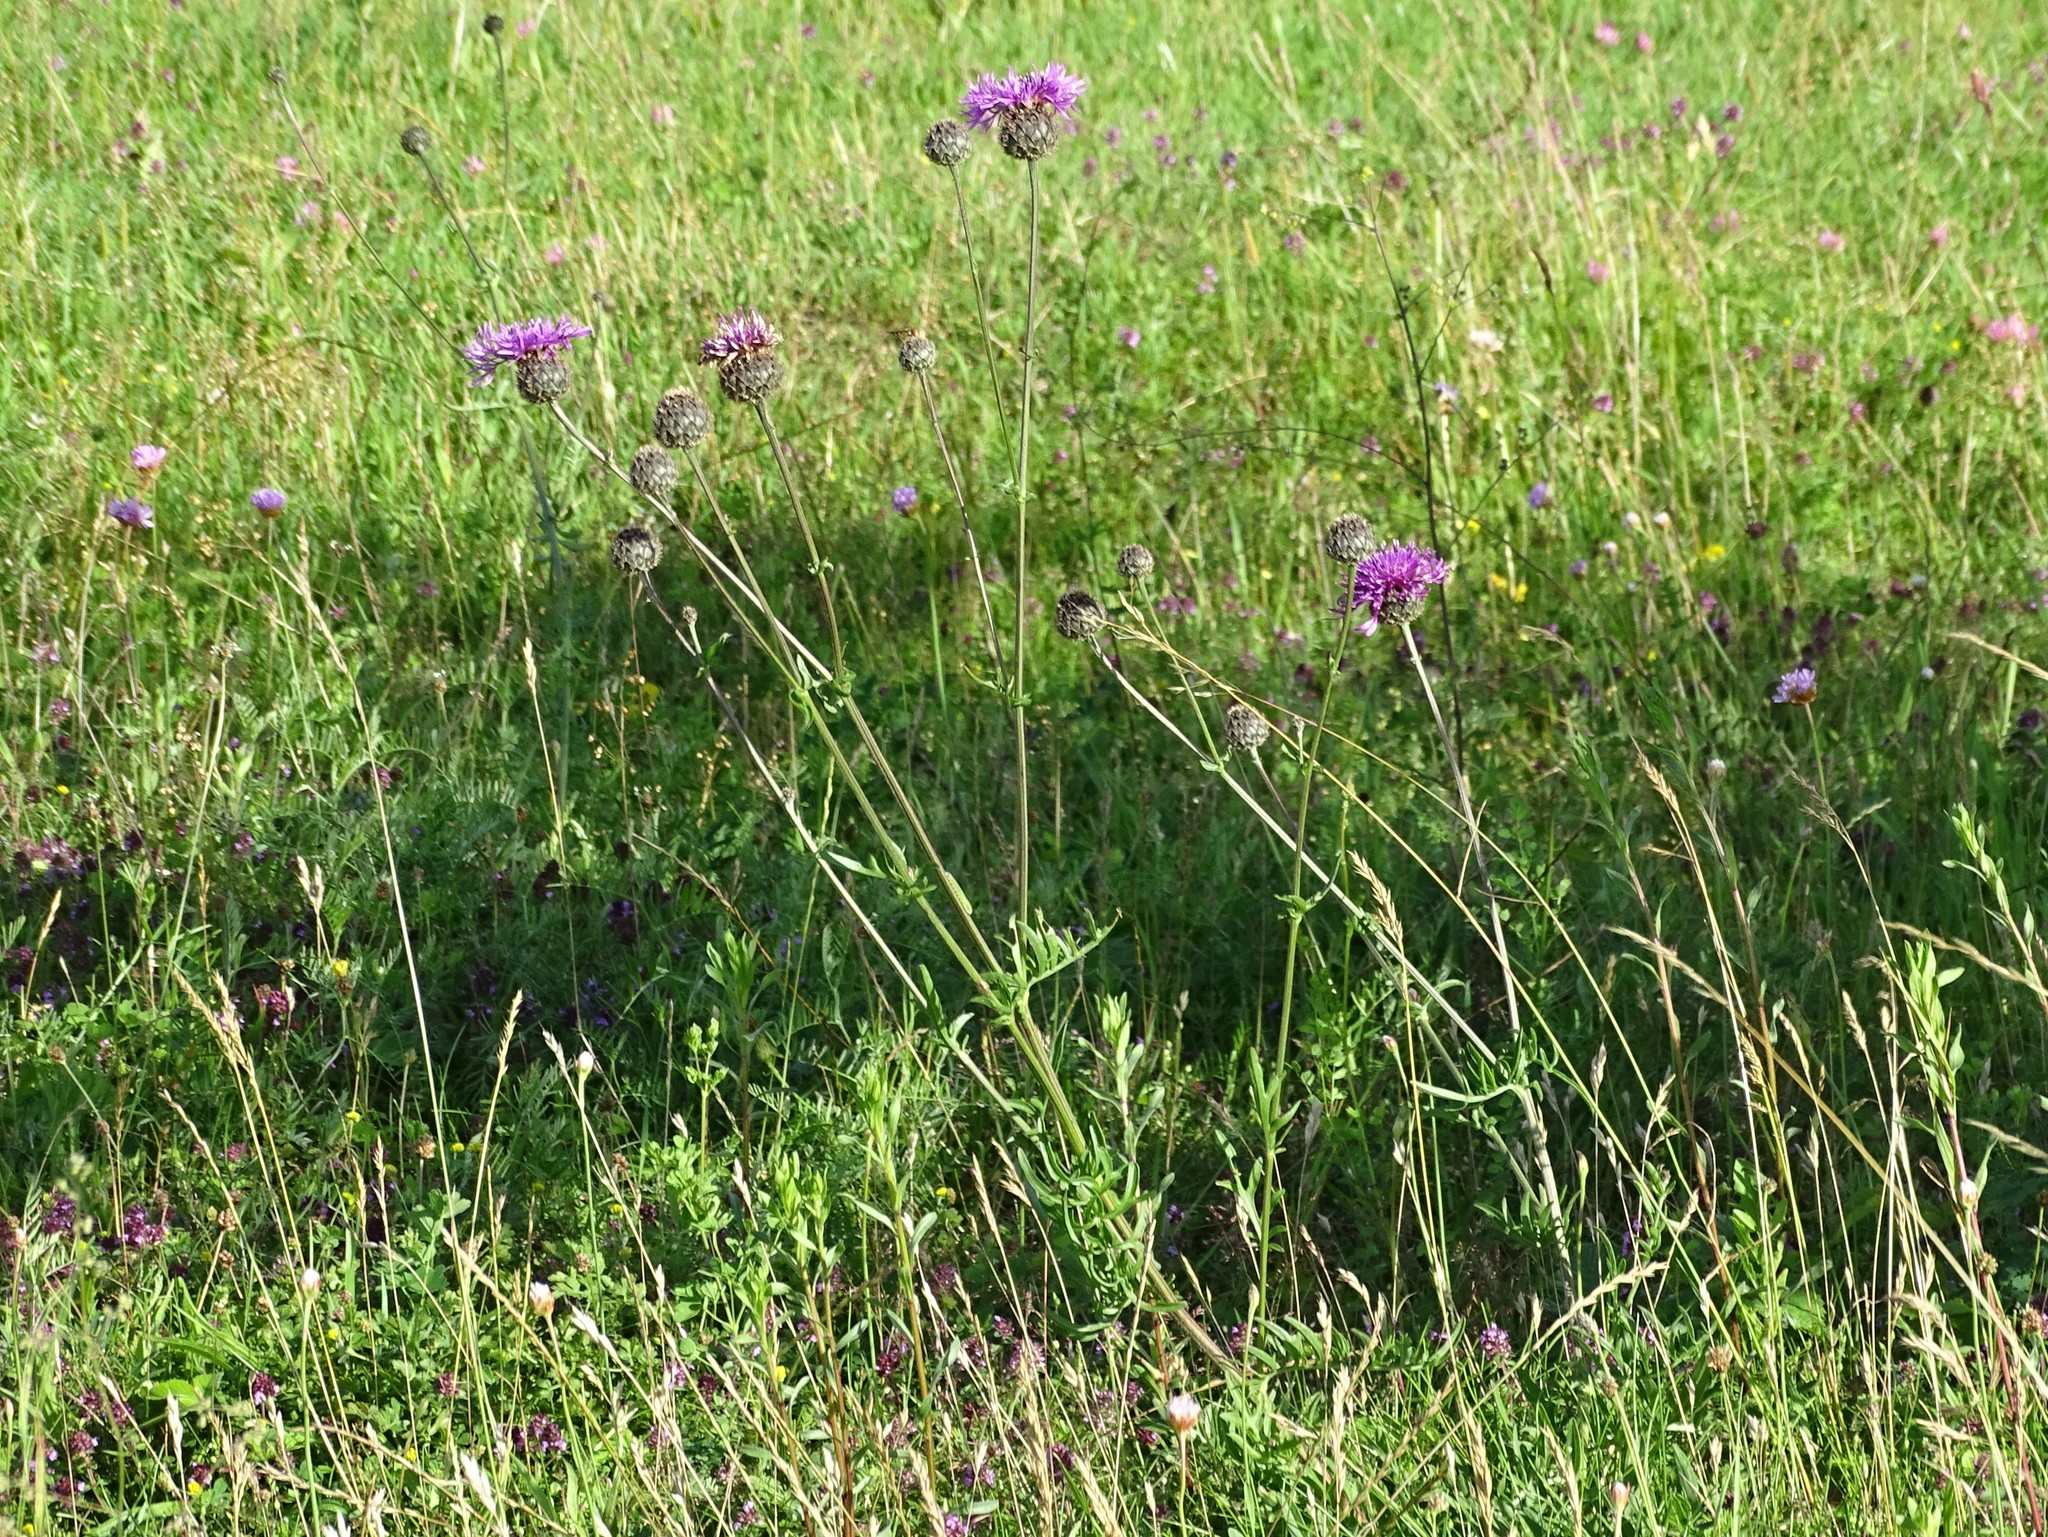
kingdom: Plantae
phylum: Tracheophyta
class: Magnoliopsida
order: Asterales
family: Asteraceae
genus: Centaurea
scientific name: Centaurea scabiosa
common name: Greater knapweed
